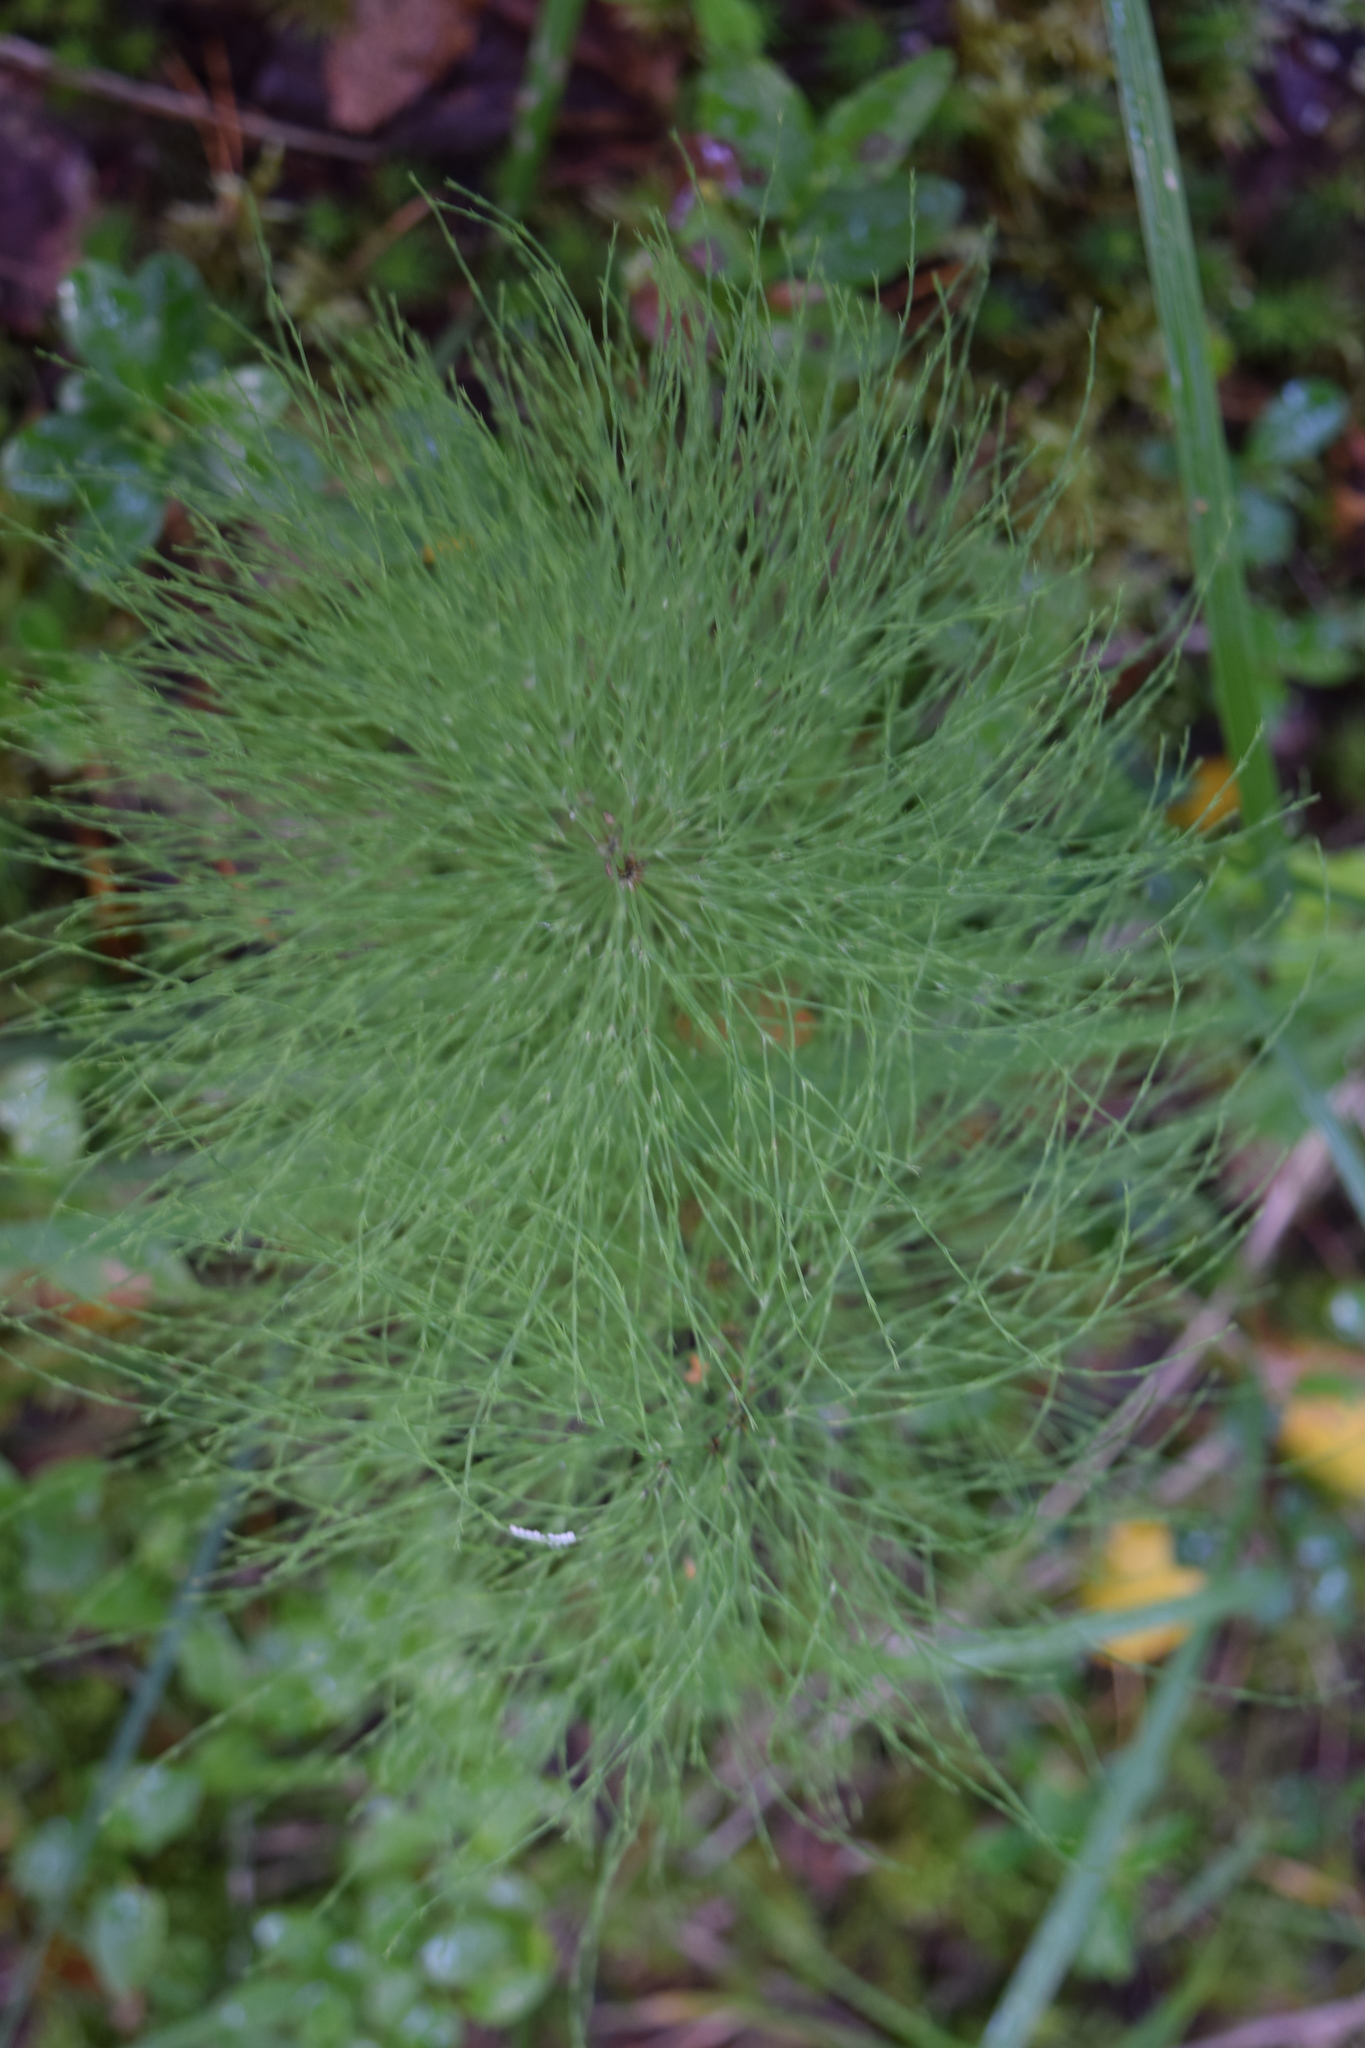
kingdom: Plantae
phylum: Tracheophyta
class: Polypodiopsida
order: Equisetales
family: Equisetaceae
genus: Equisetum
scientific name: Equisetum sylvaticum
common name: Wood horsetail
